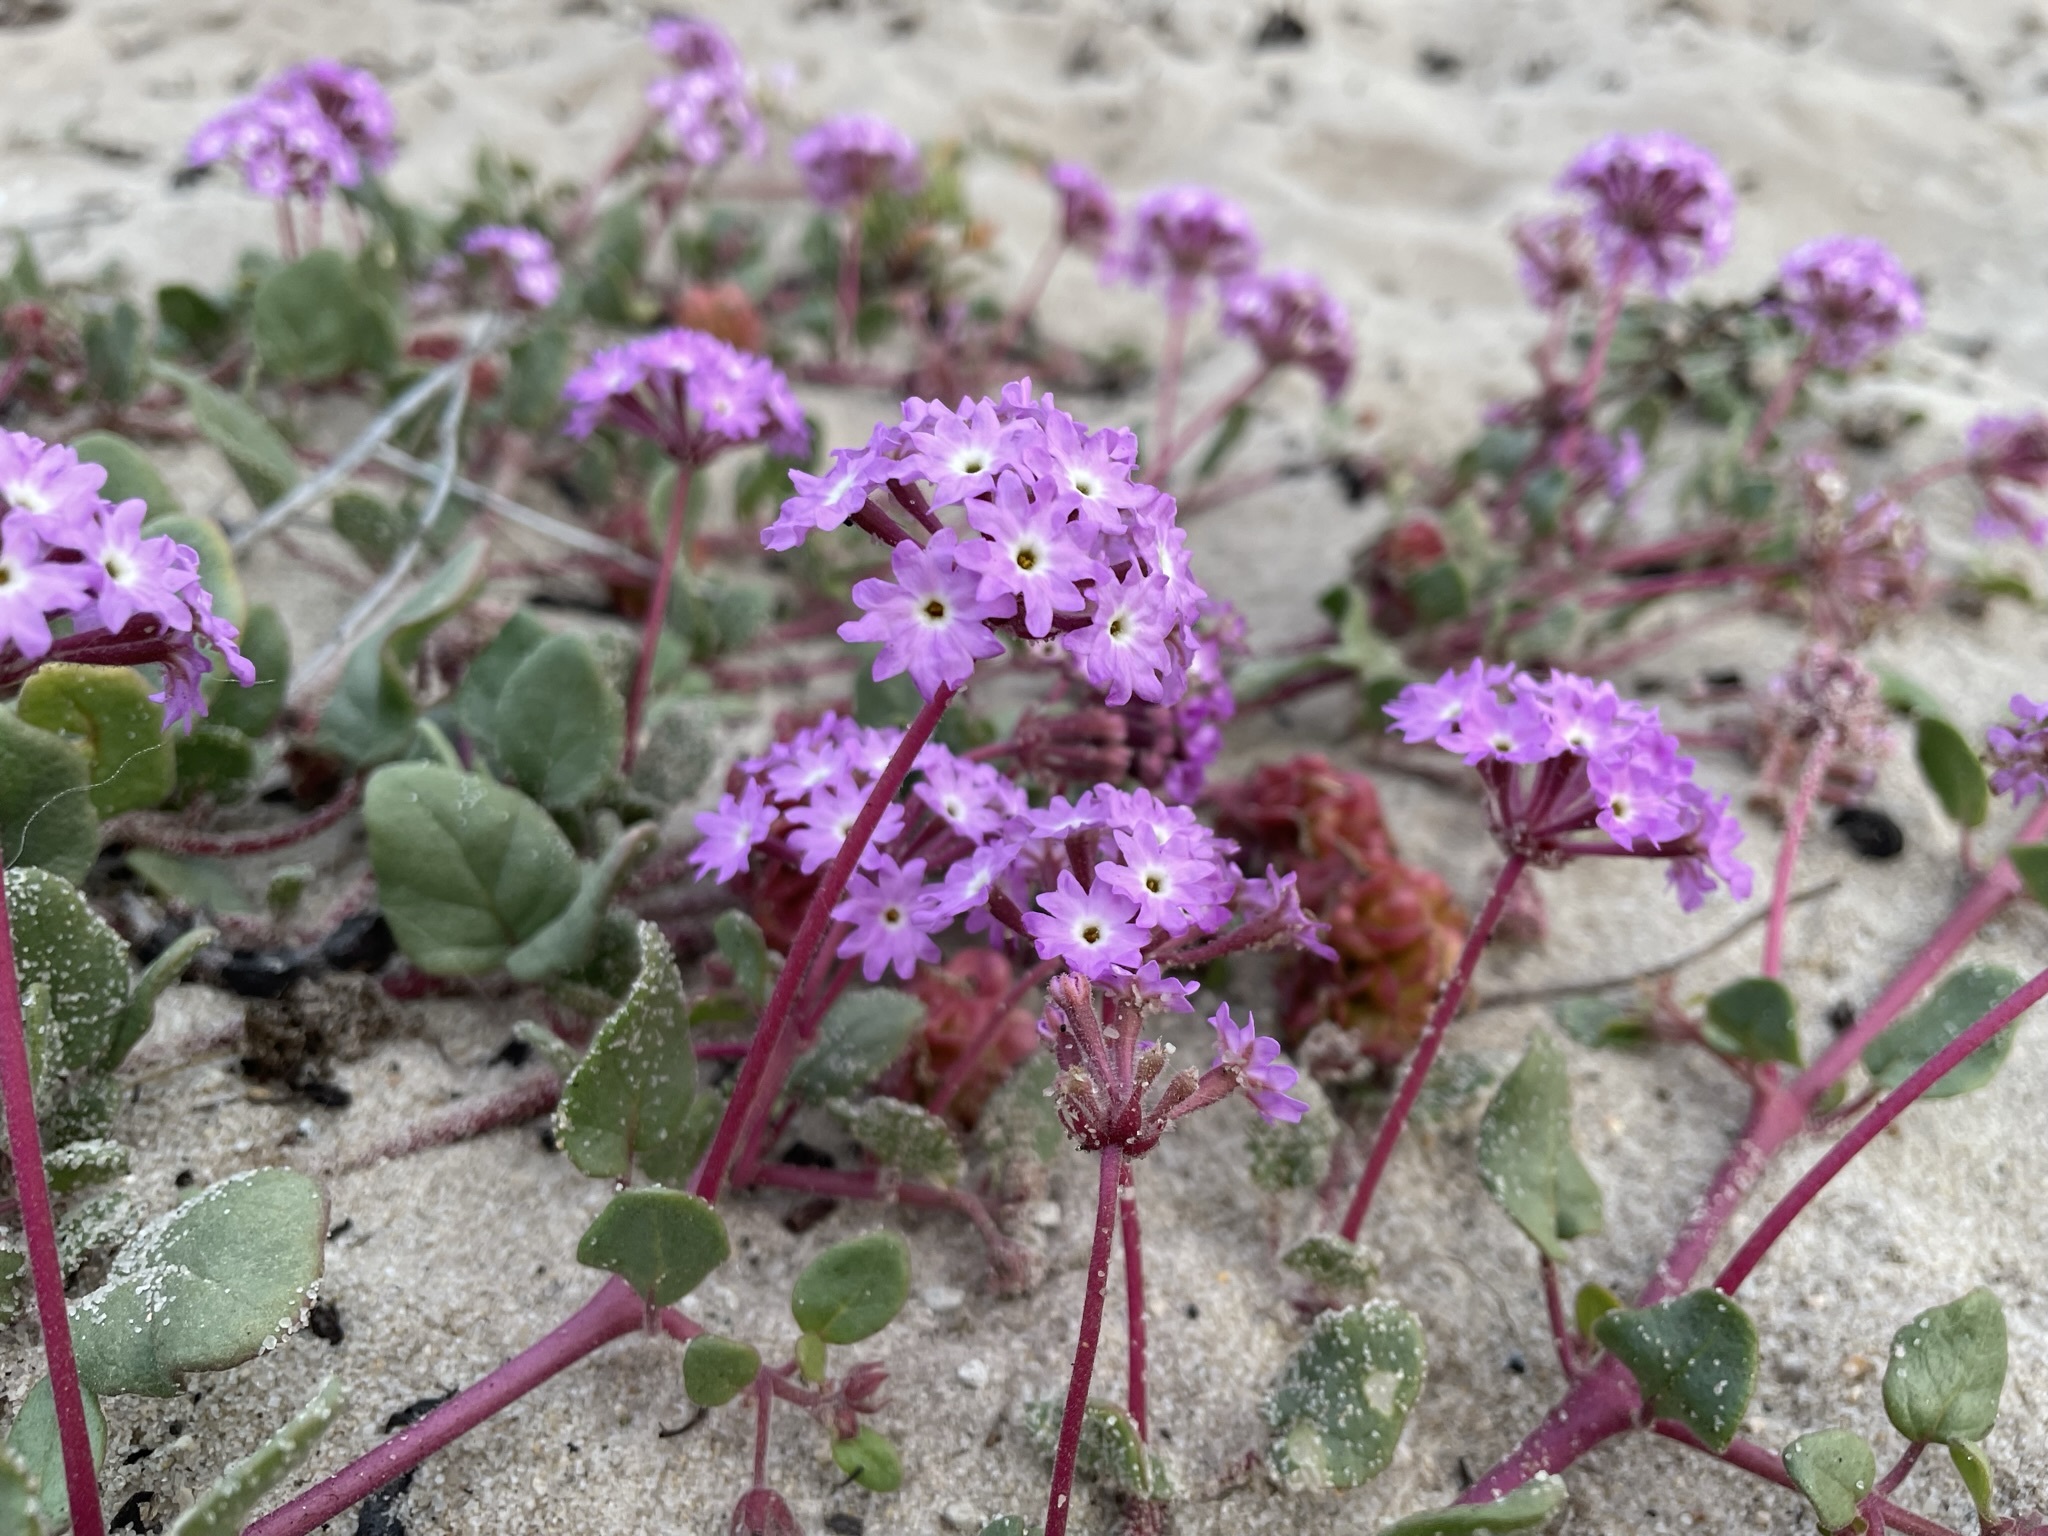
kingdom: Plantae
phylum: Tracheophyta
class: Magnoliopsida
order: Caryophyllales
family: Nyctaginaceae
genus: Abronia
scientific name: Abronia umbellata
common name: Sand-verbena
